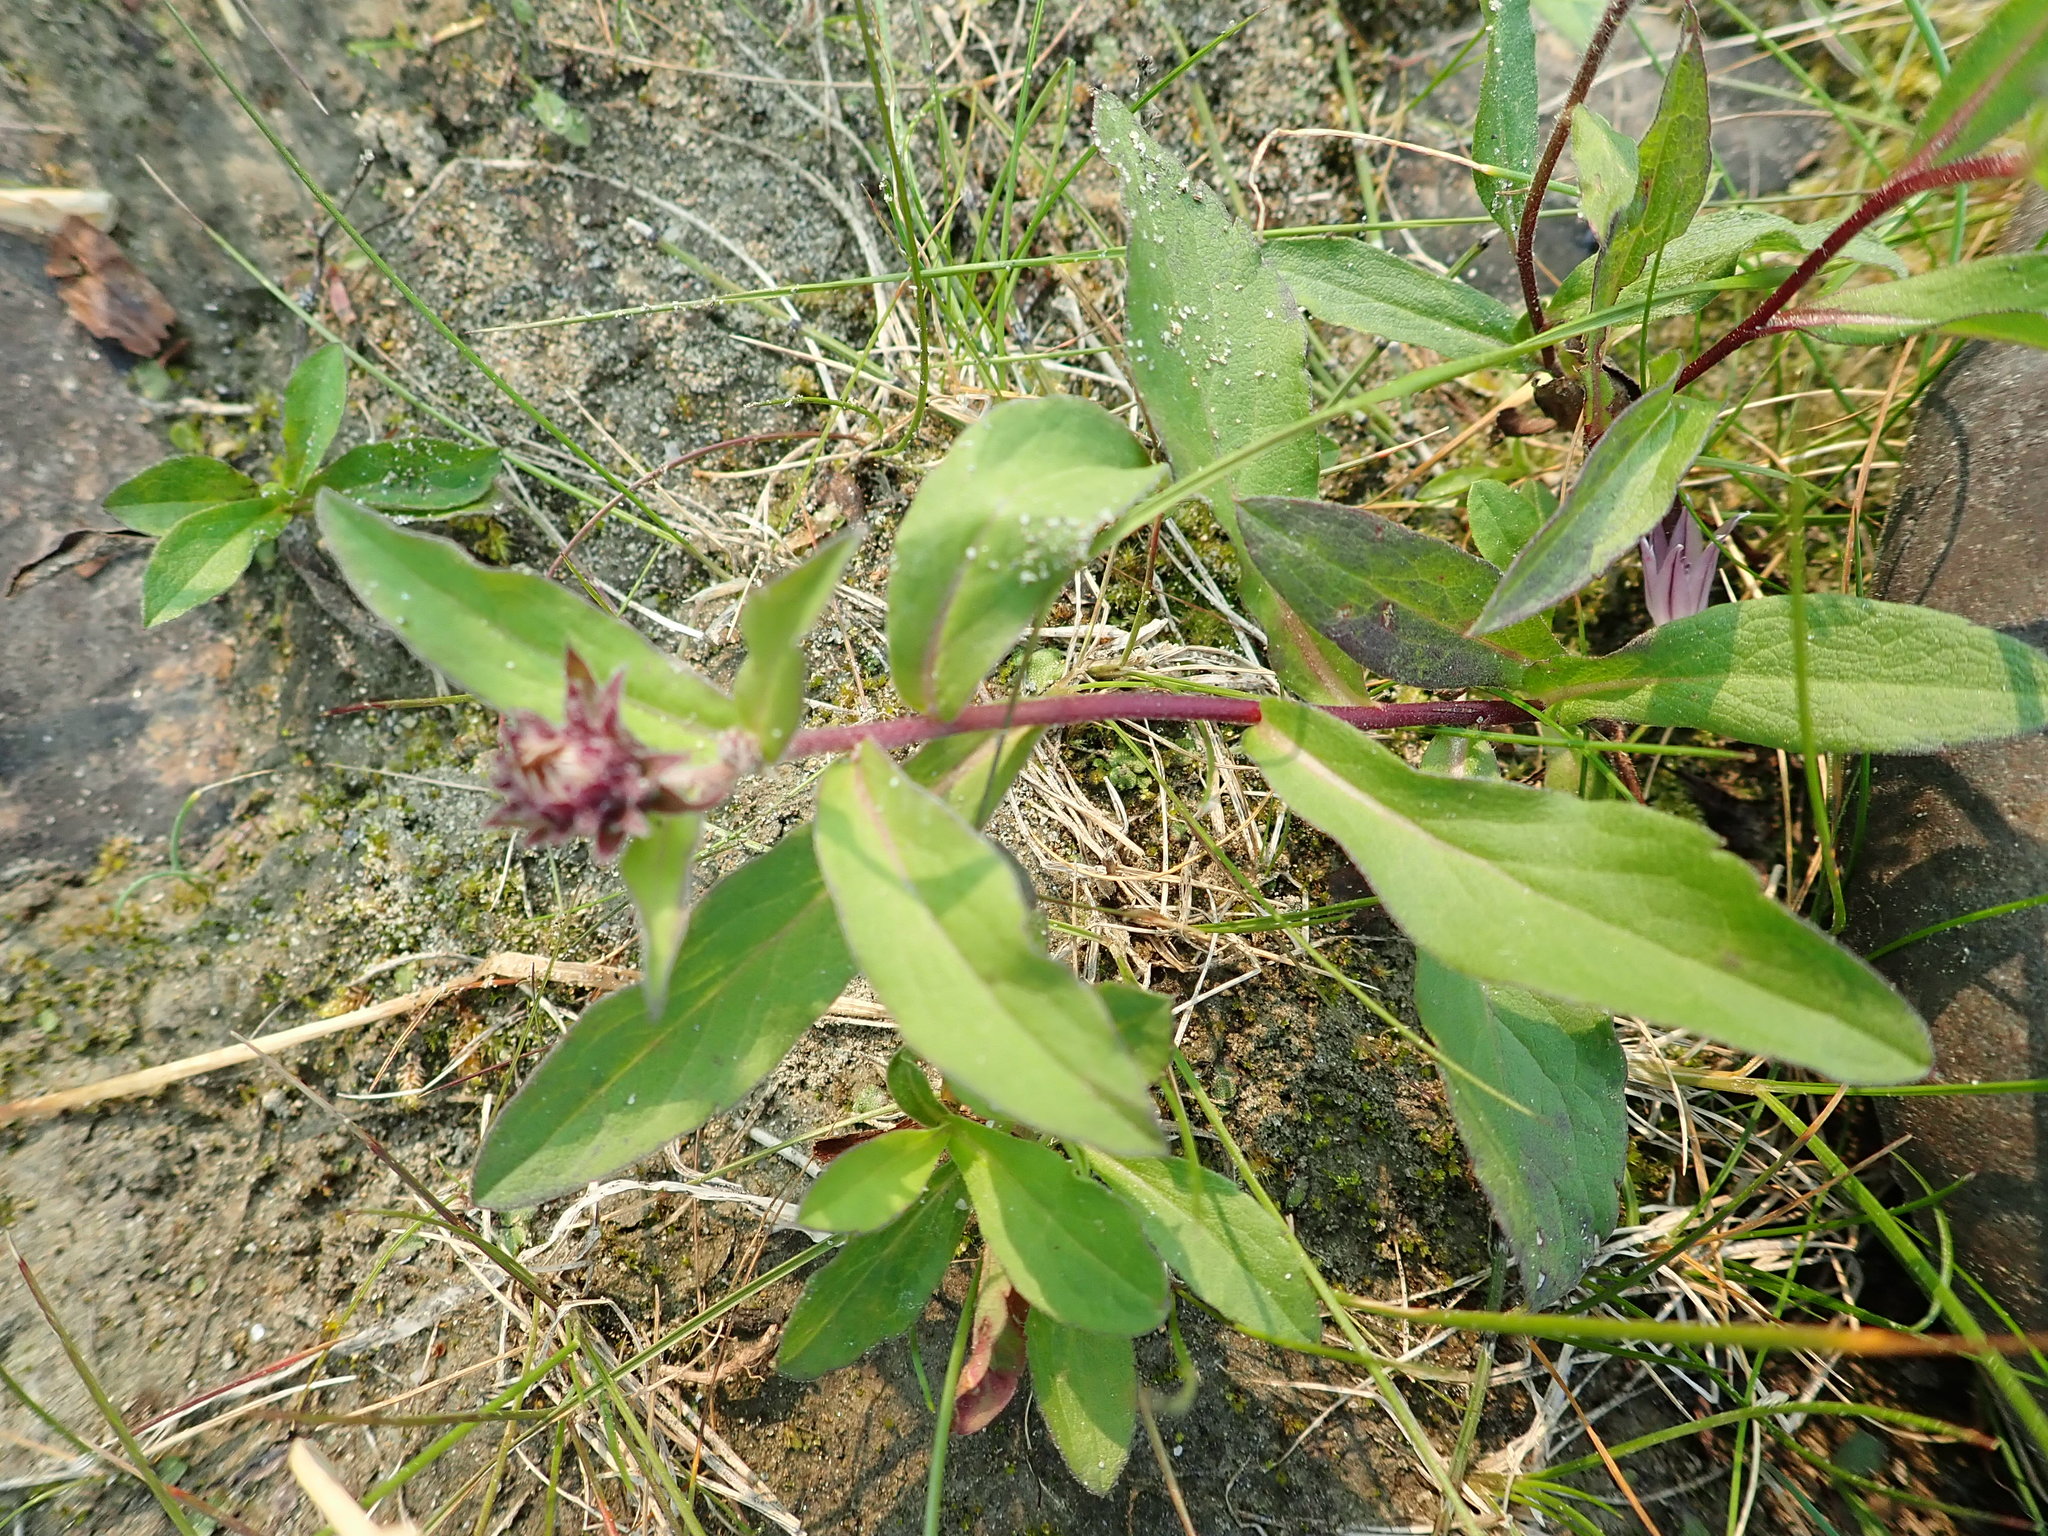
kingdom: Plantae
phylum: Tracheophyta
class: Magnoliopsida
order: Asterales
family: Asteraceae
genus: Eurybia
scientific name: Eurybia sibirica
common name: Arctic aster
